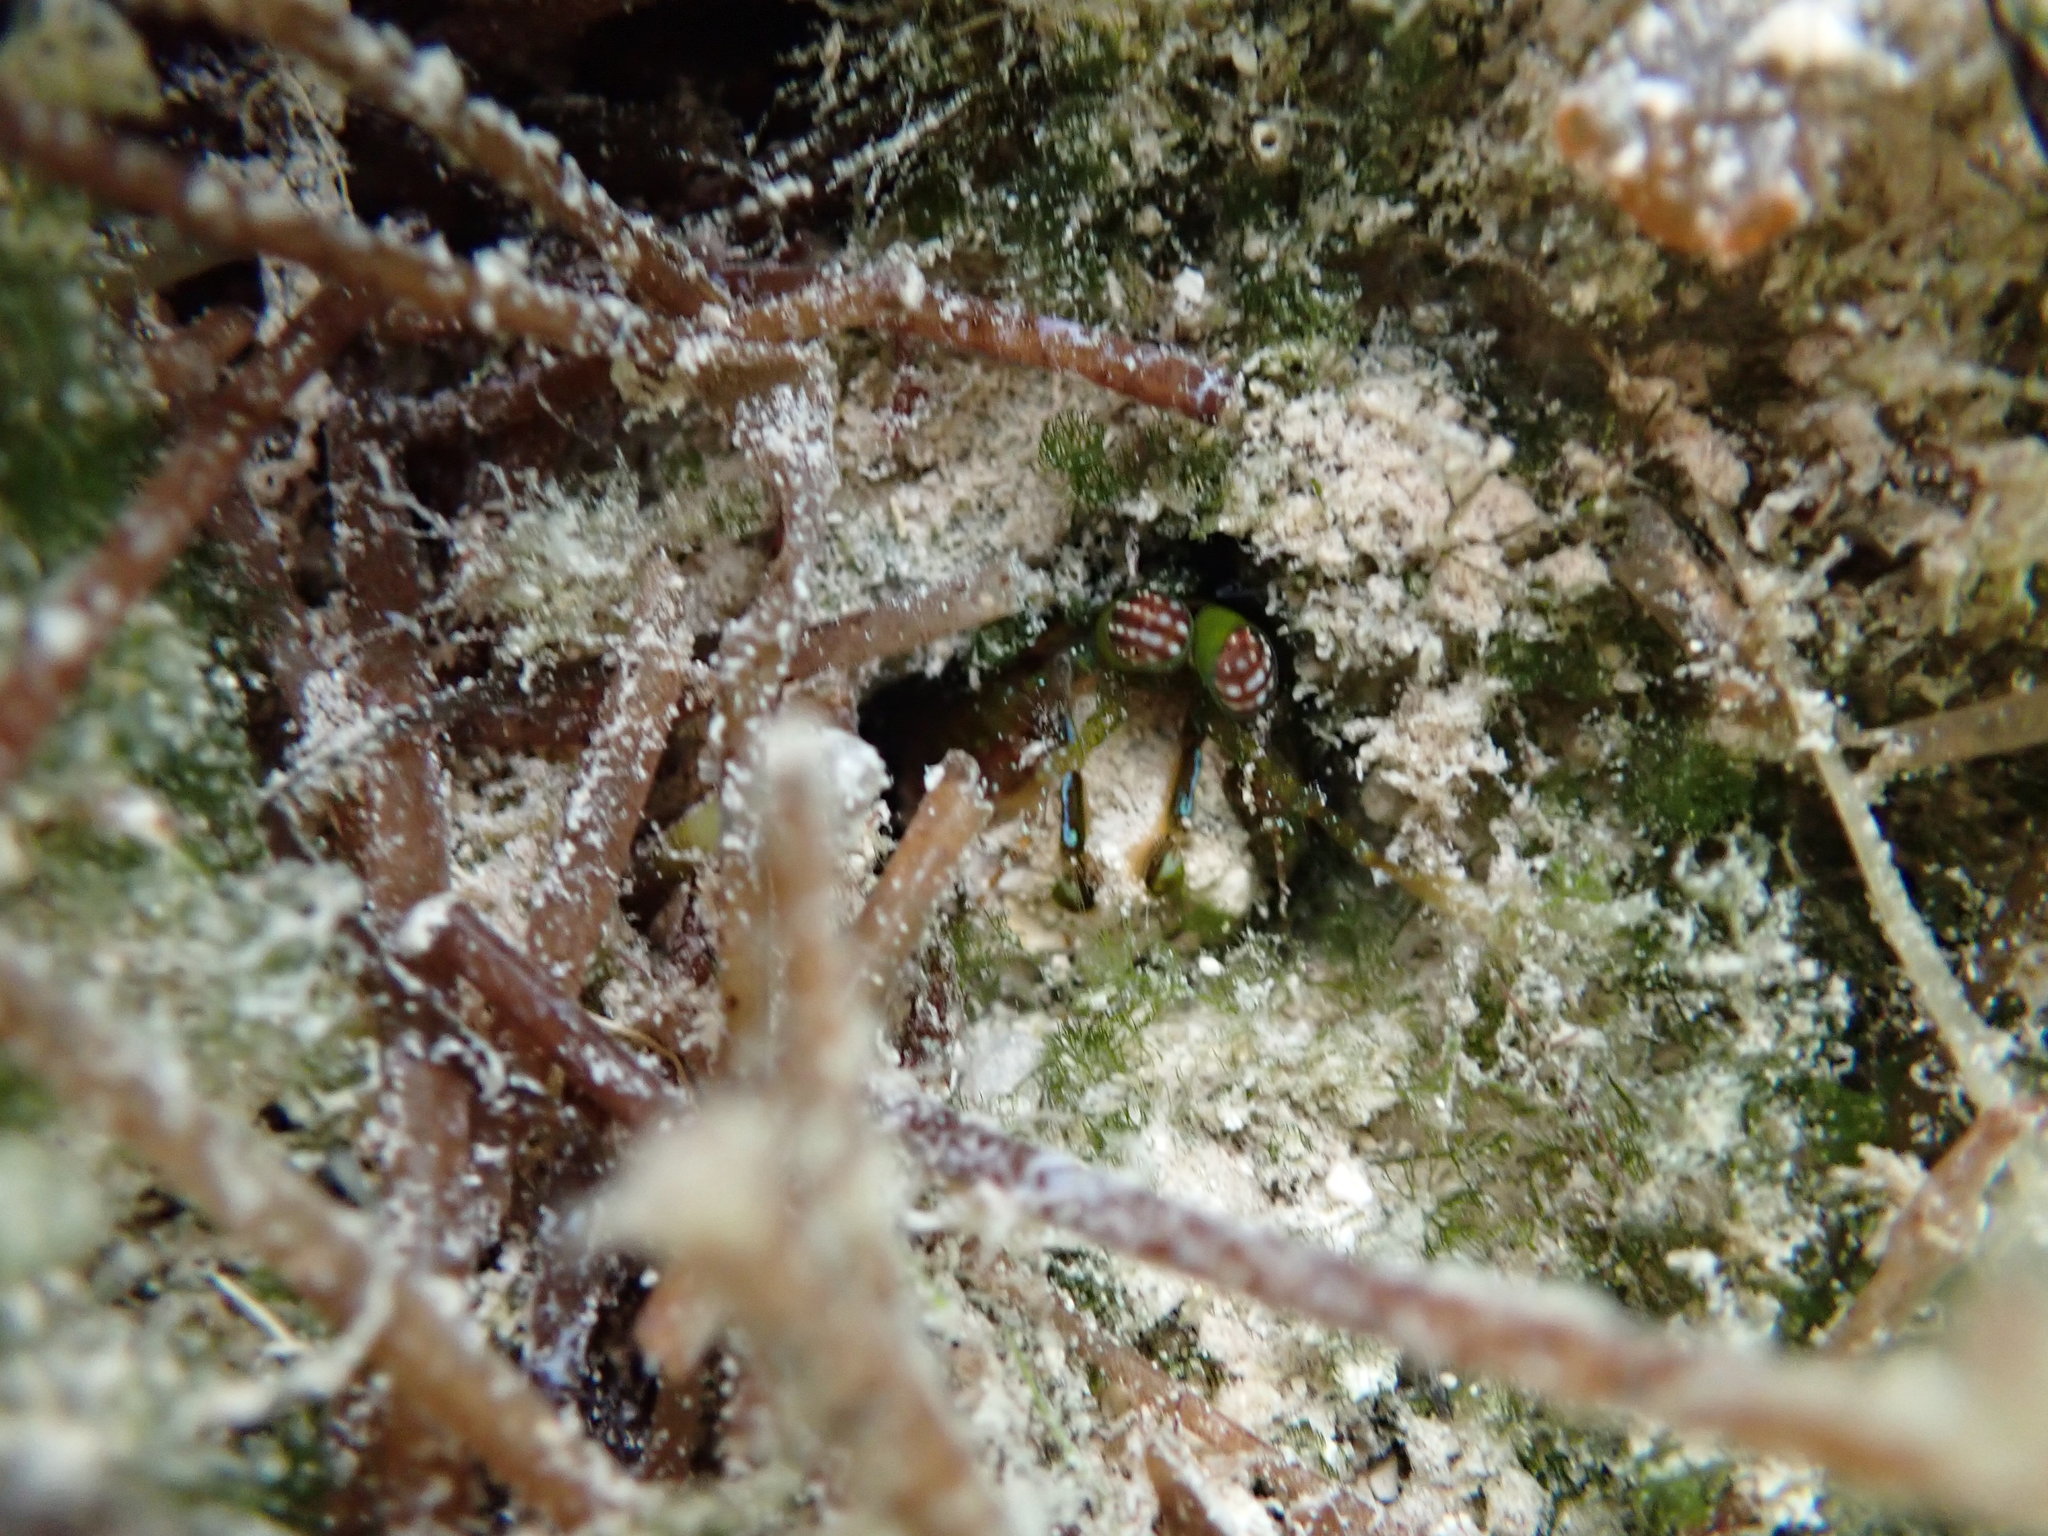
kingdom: Animalia
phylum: Arthropoda
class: Malacostraca
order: Stomatopoda
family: Pseudosquillidae
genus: Pseudosquilla
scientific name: Pseudosquilla ciliata
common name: Ciliated false squilla
